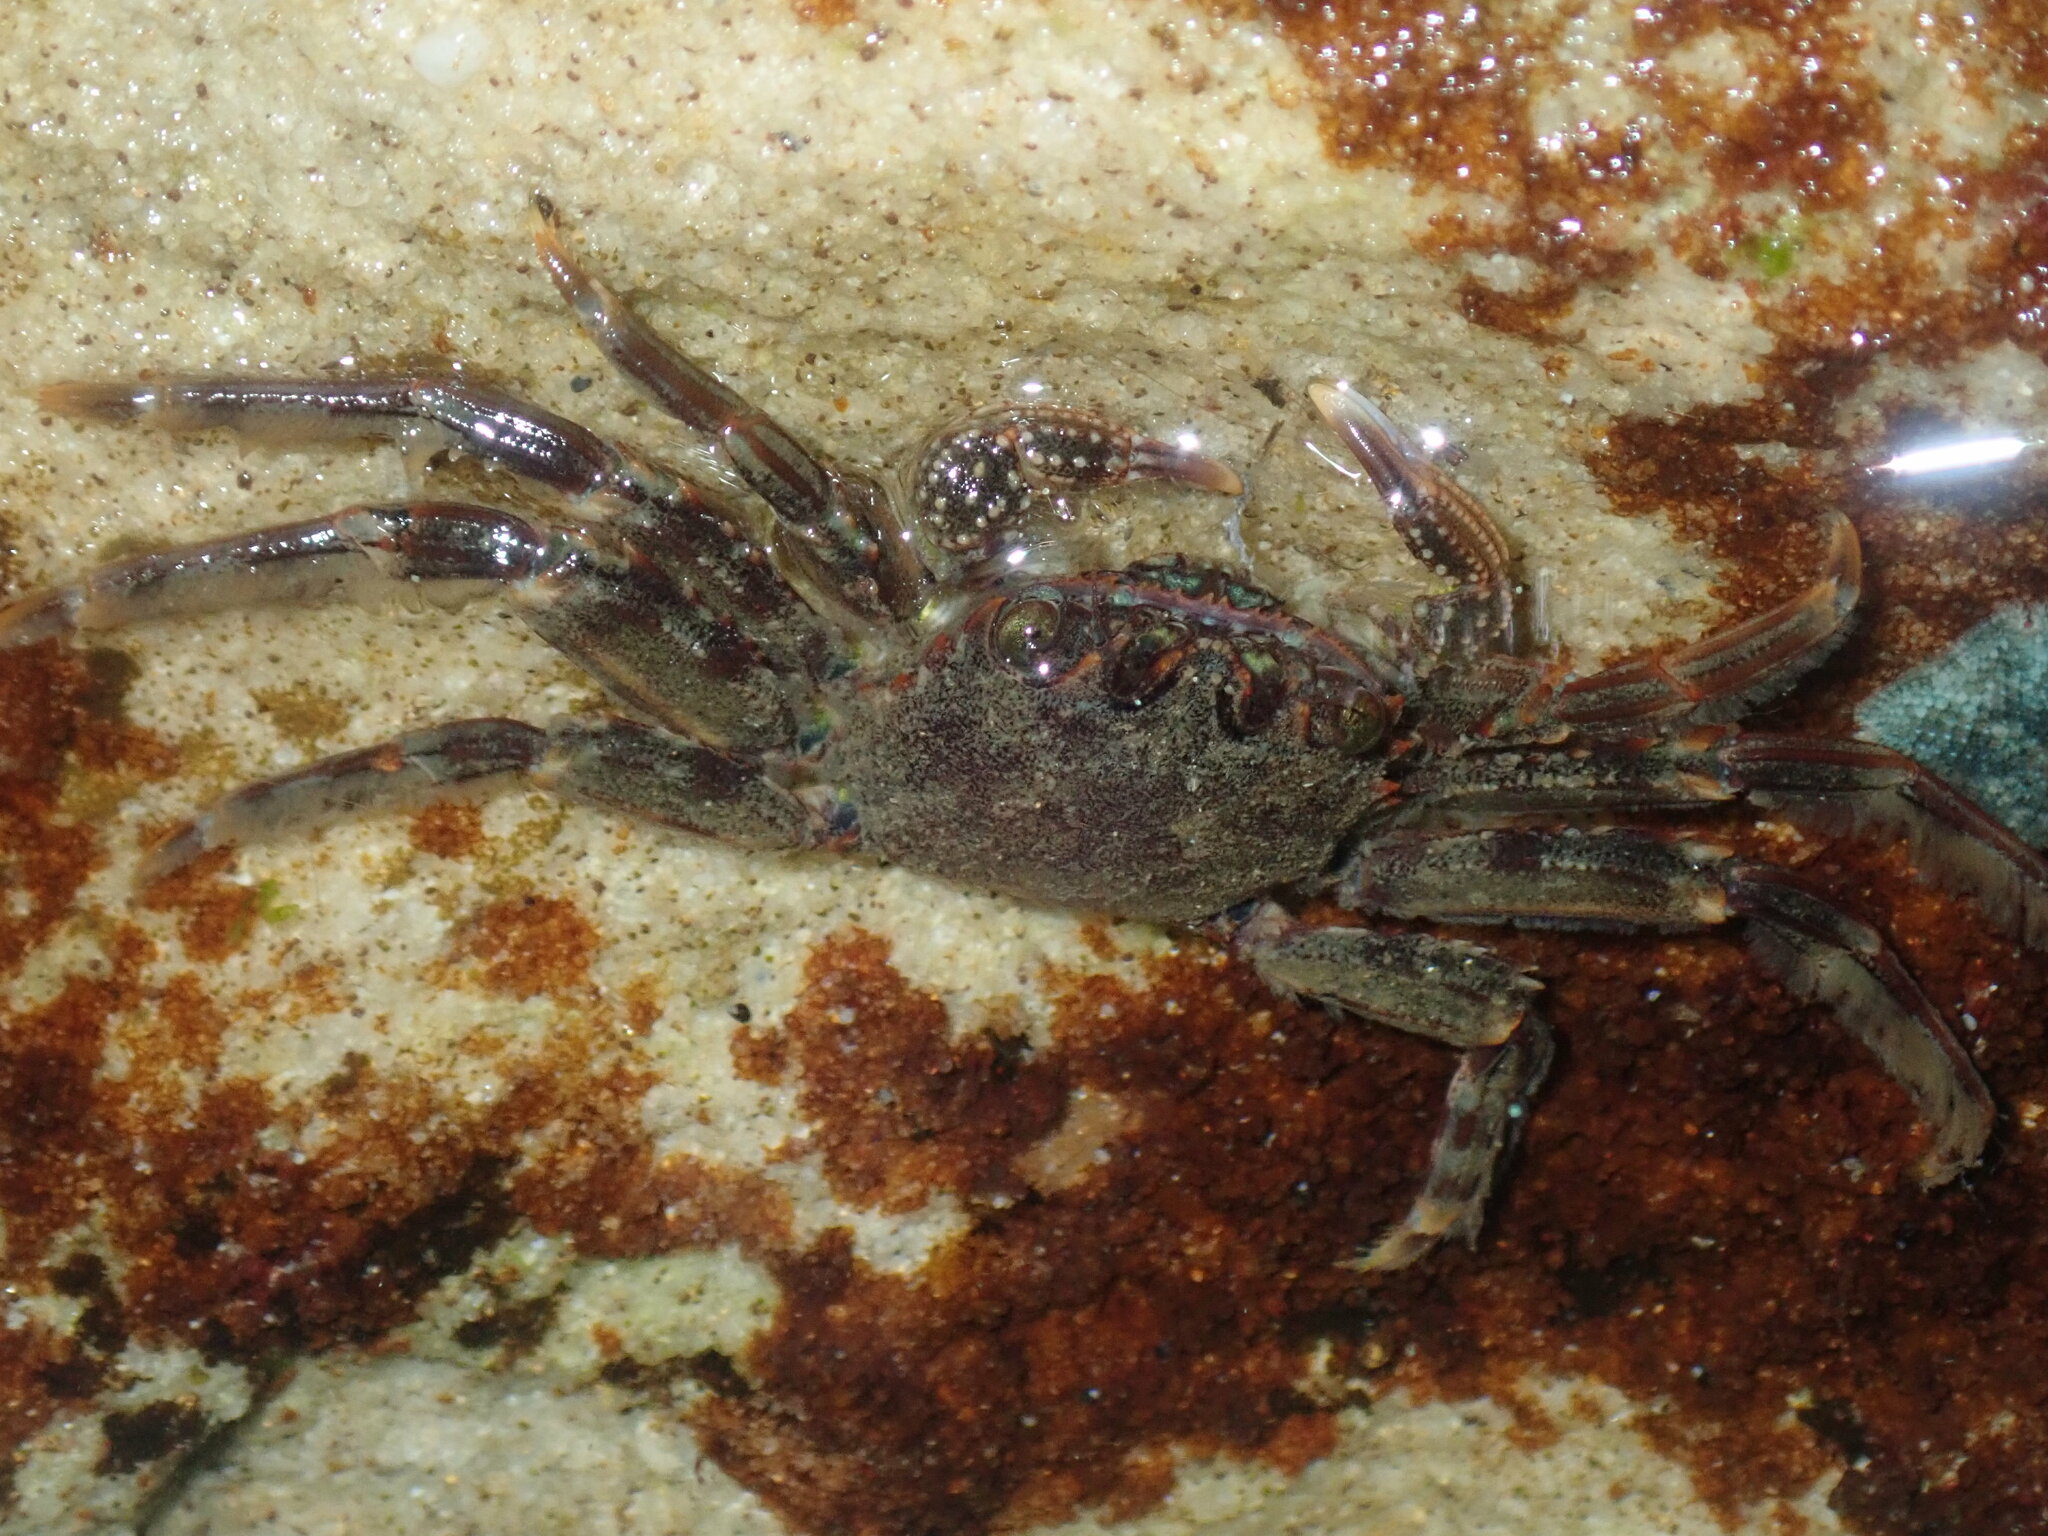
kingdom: Animalia
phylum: Arthropoda
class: Malacostraca
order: Decapoda
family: Plagusiidae
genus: Guinusia
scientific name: Guinusia chabrus
